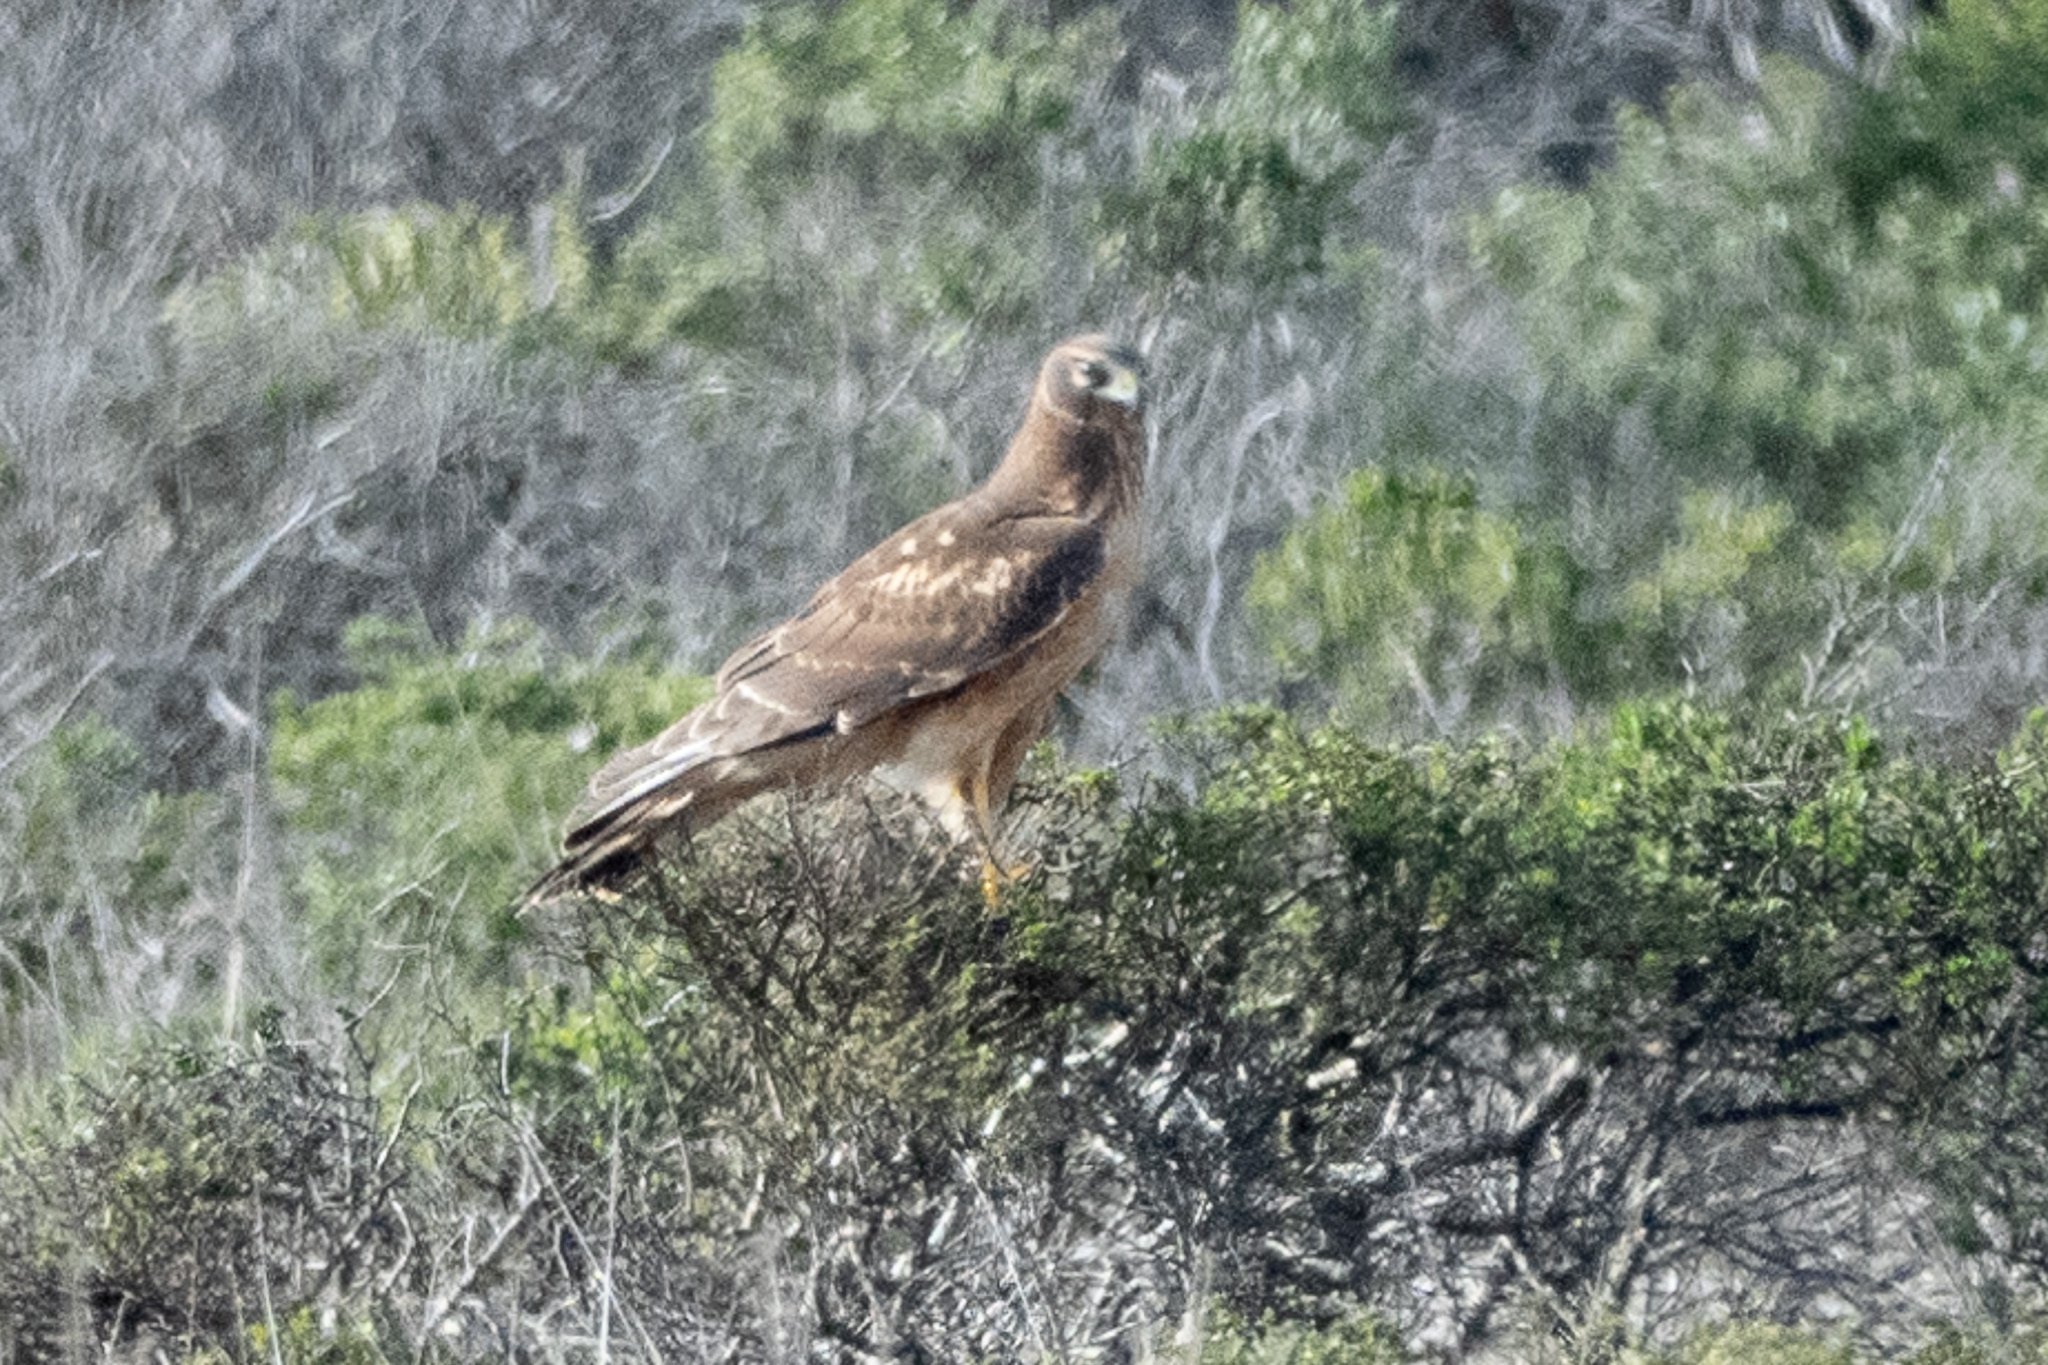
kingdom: Animalia
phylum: Chordata
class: Aves
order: Accipitriformes
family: Accipitridae
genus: Circus
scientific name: Circus cyaneus
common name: Hen harrier
